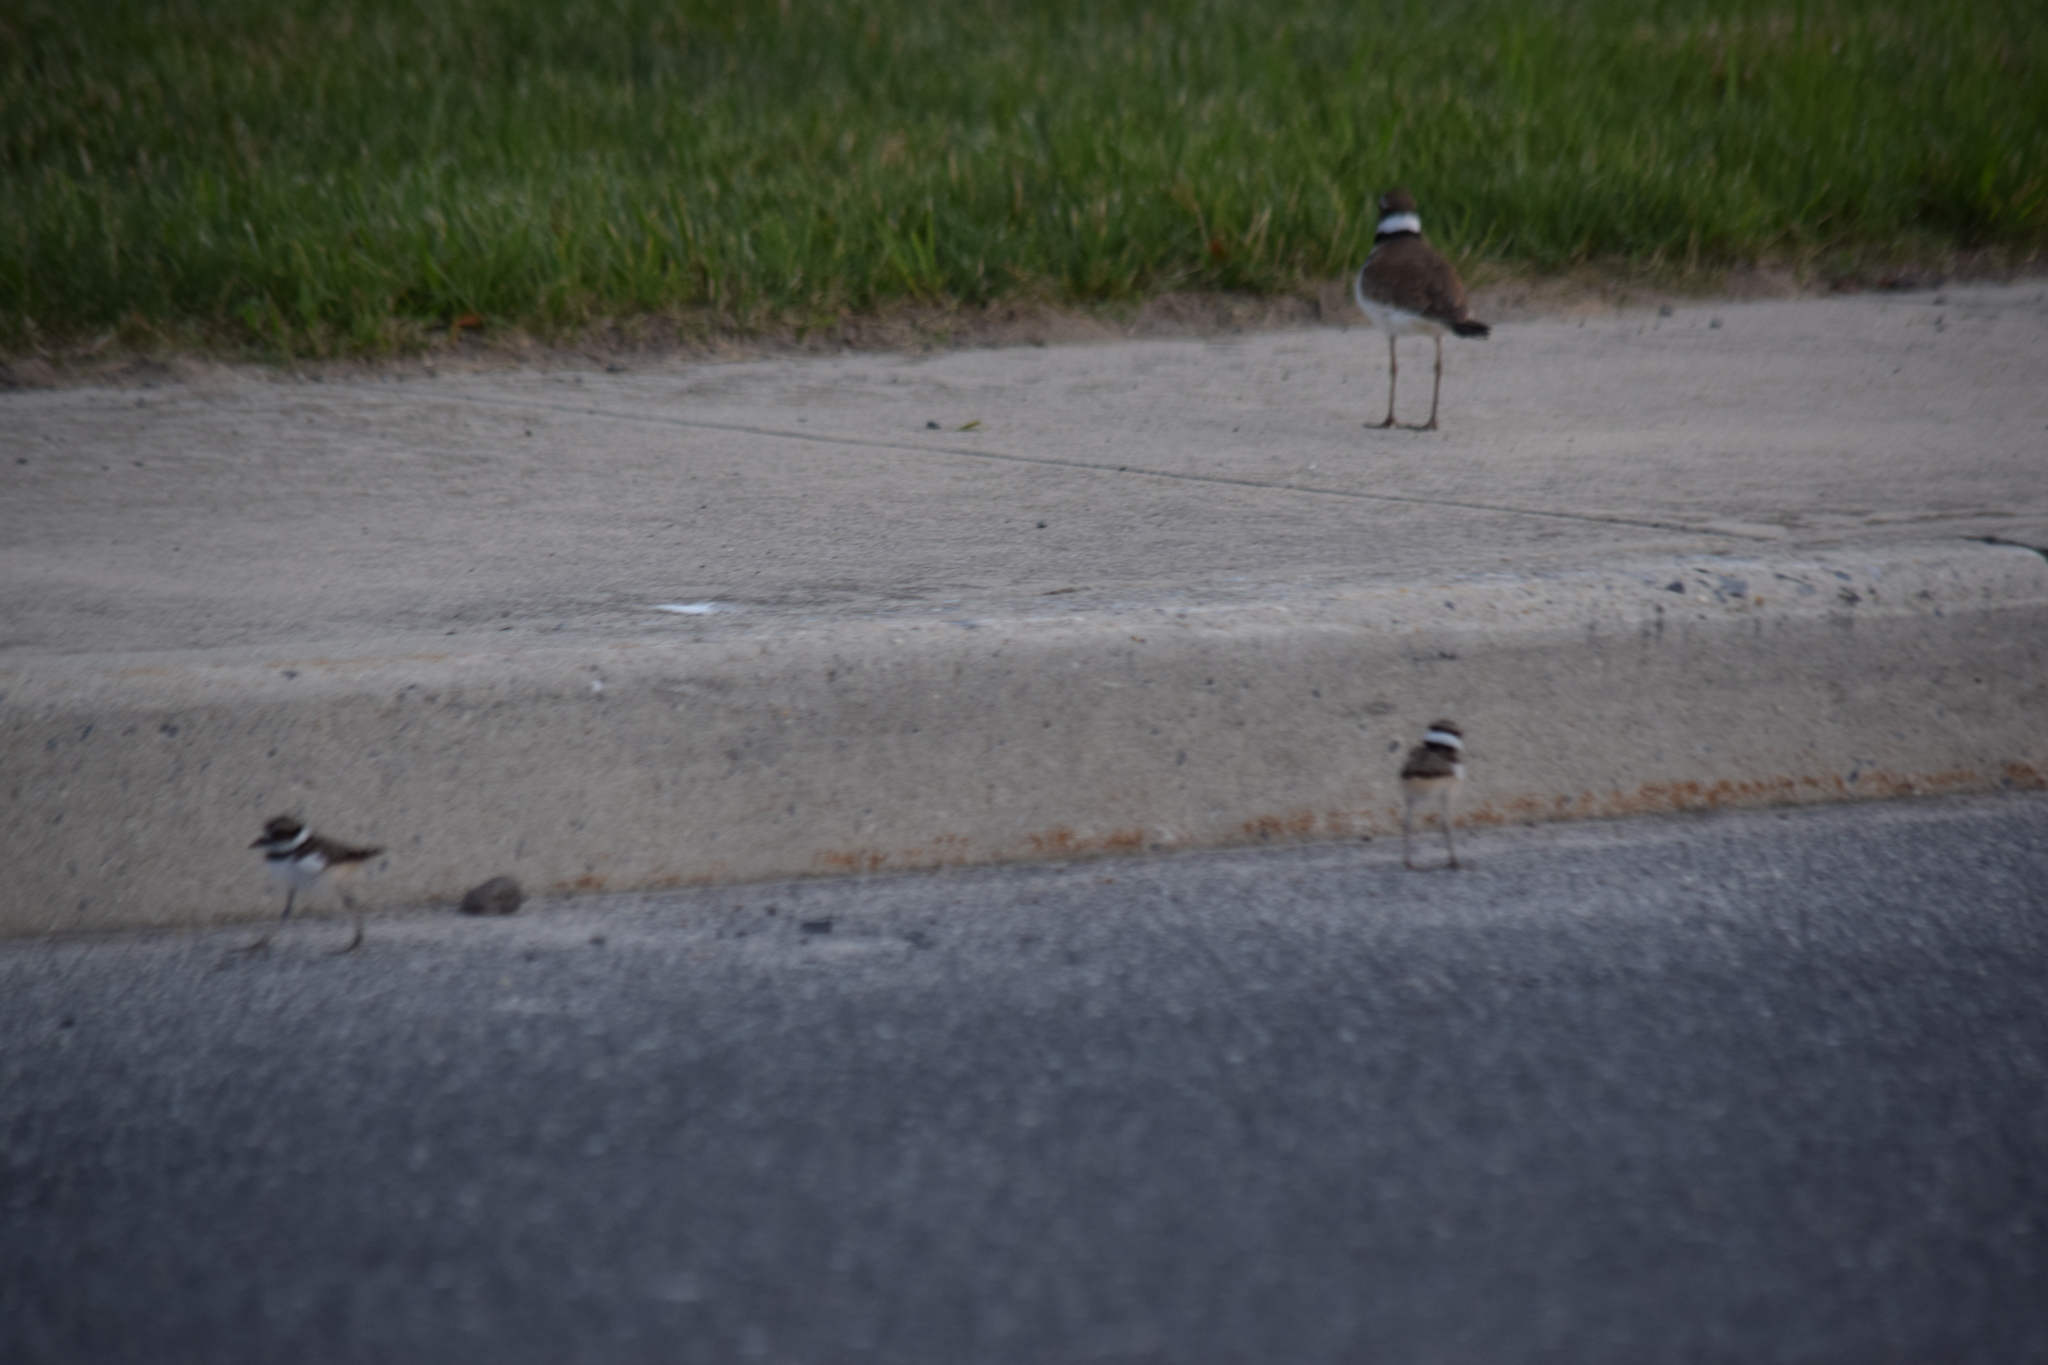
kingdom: Animalia
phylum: Chordata
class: Aves
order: Charadriiformes
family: Charadriidae
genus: Charadrius
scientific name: Charadrius vociferus
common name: Killdeer
